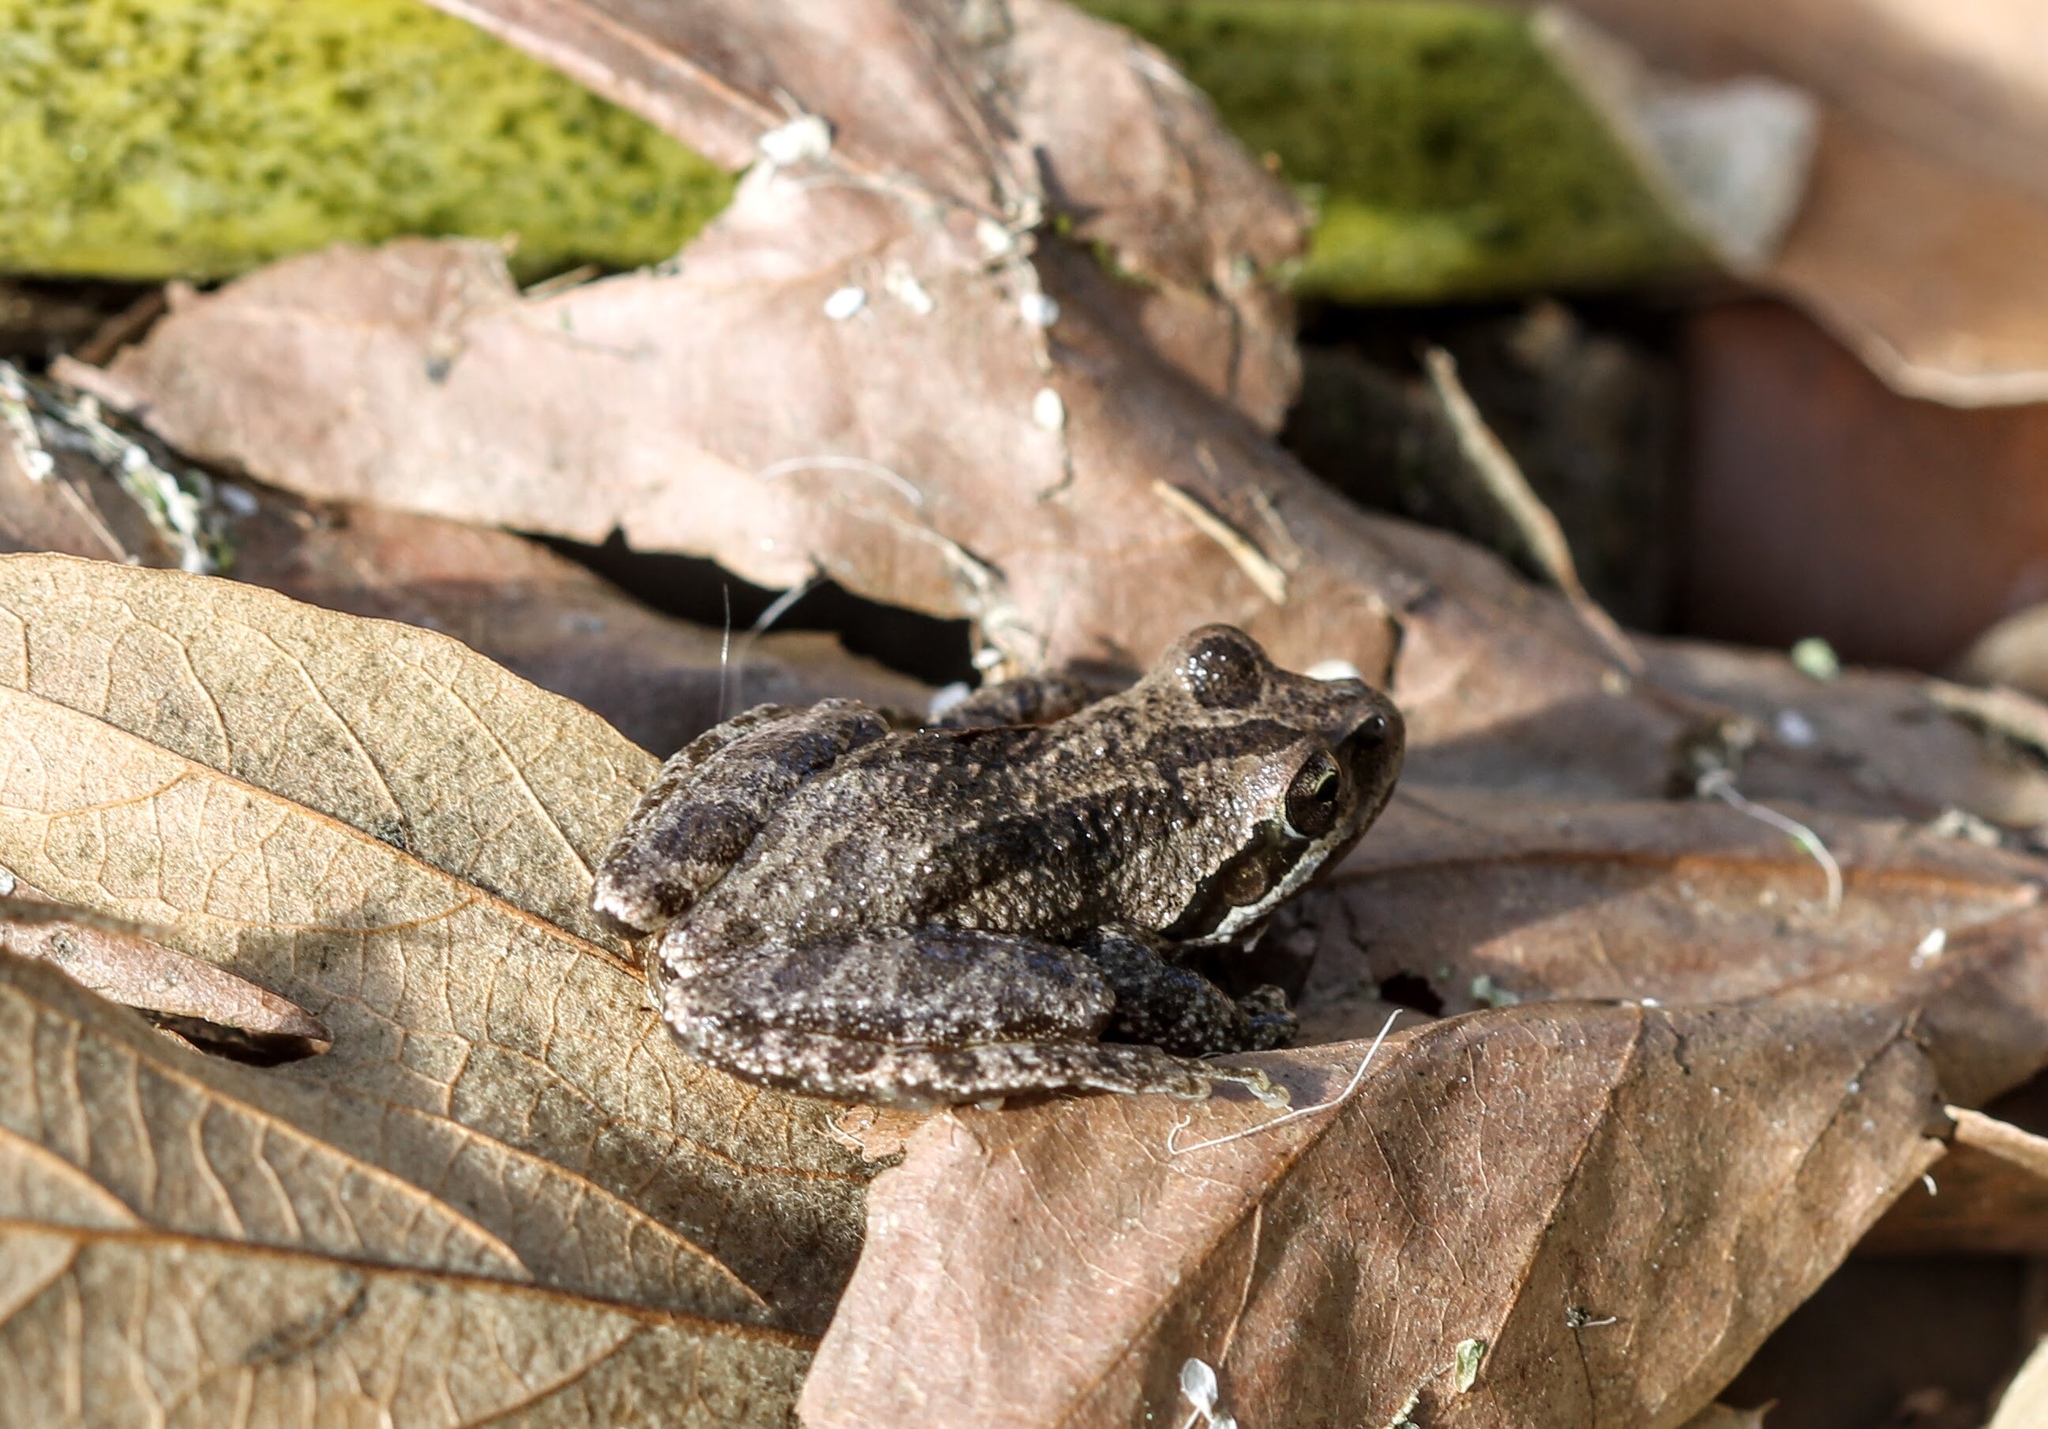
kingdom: Animalia
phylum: Chordata
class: Amphibia
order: Anura
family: Hylidae
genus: Pseudacris
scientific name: Pseudacris regilla
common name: Pacific chorus frog
